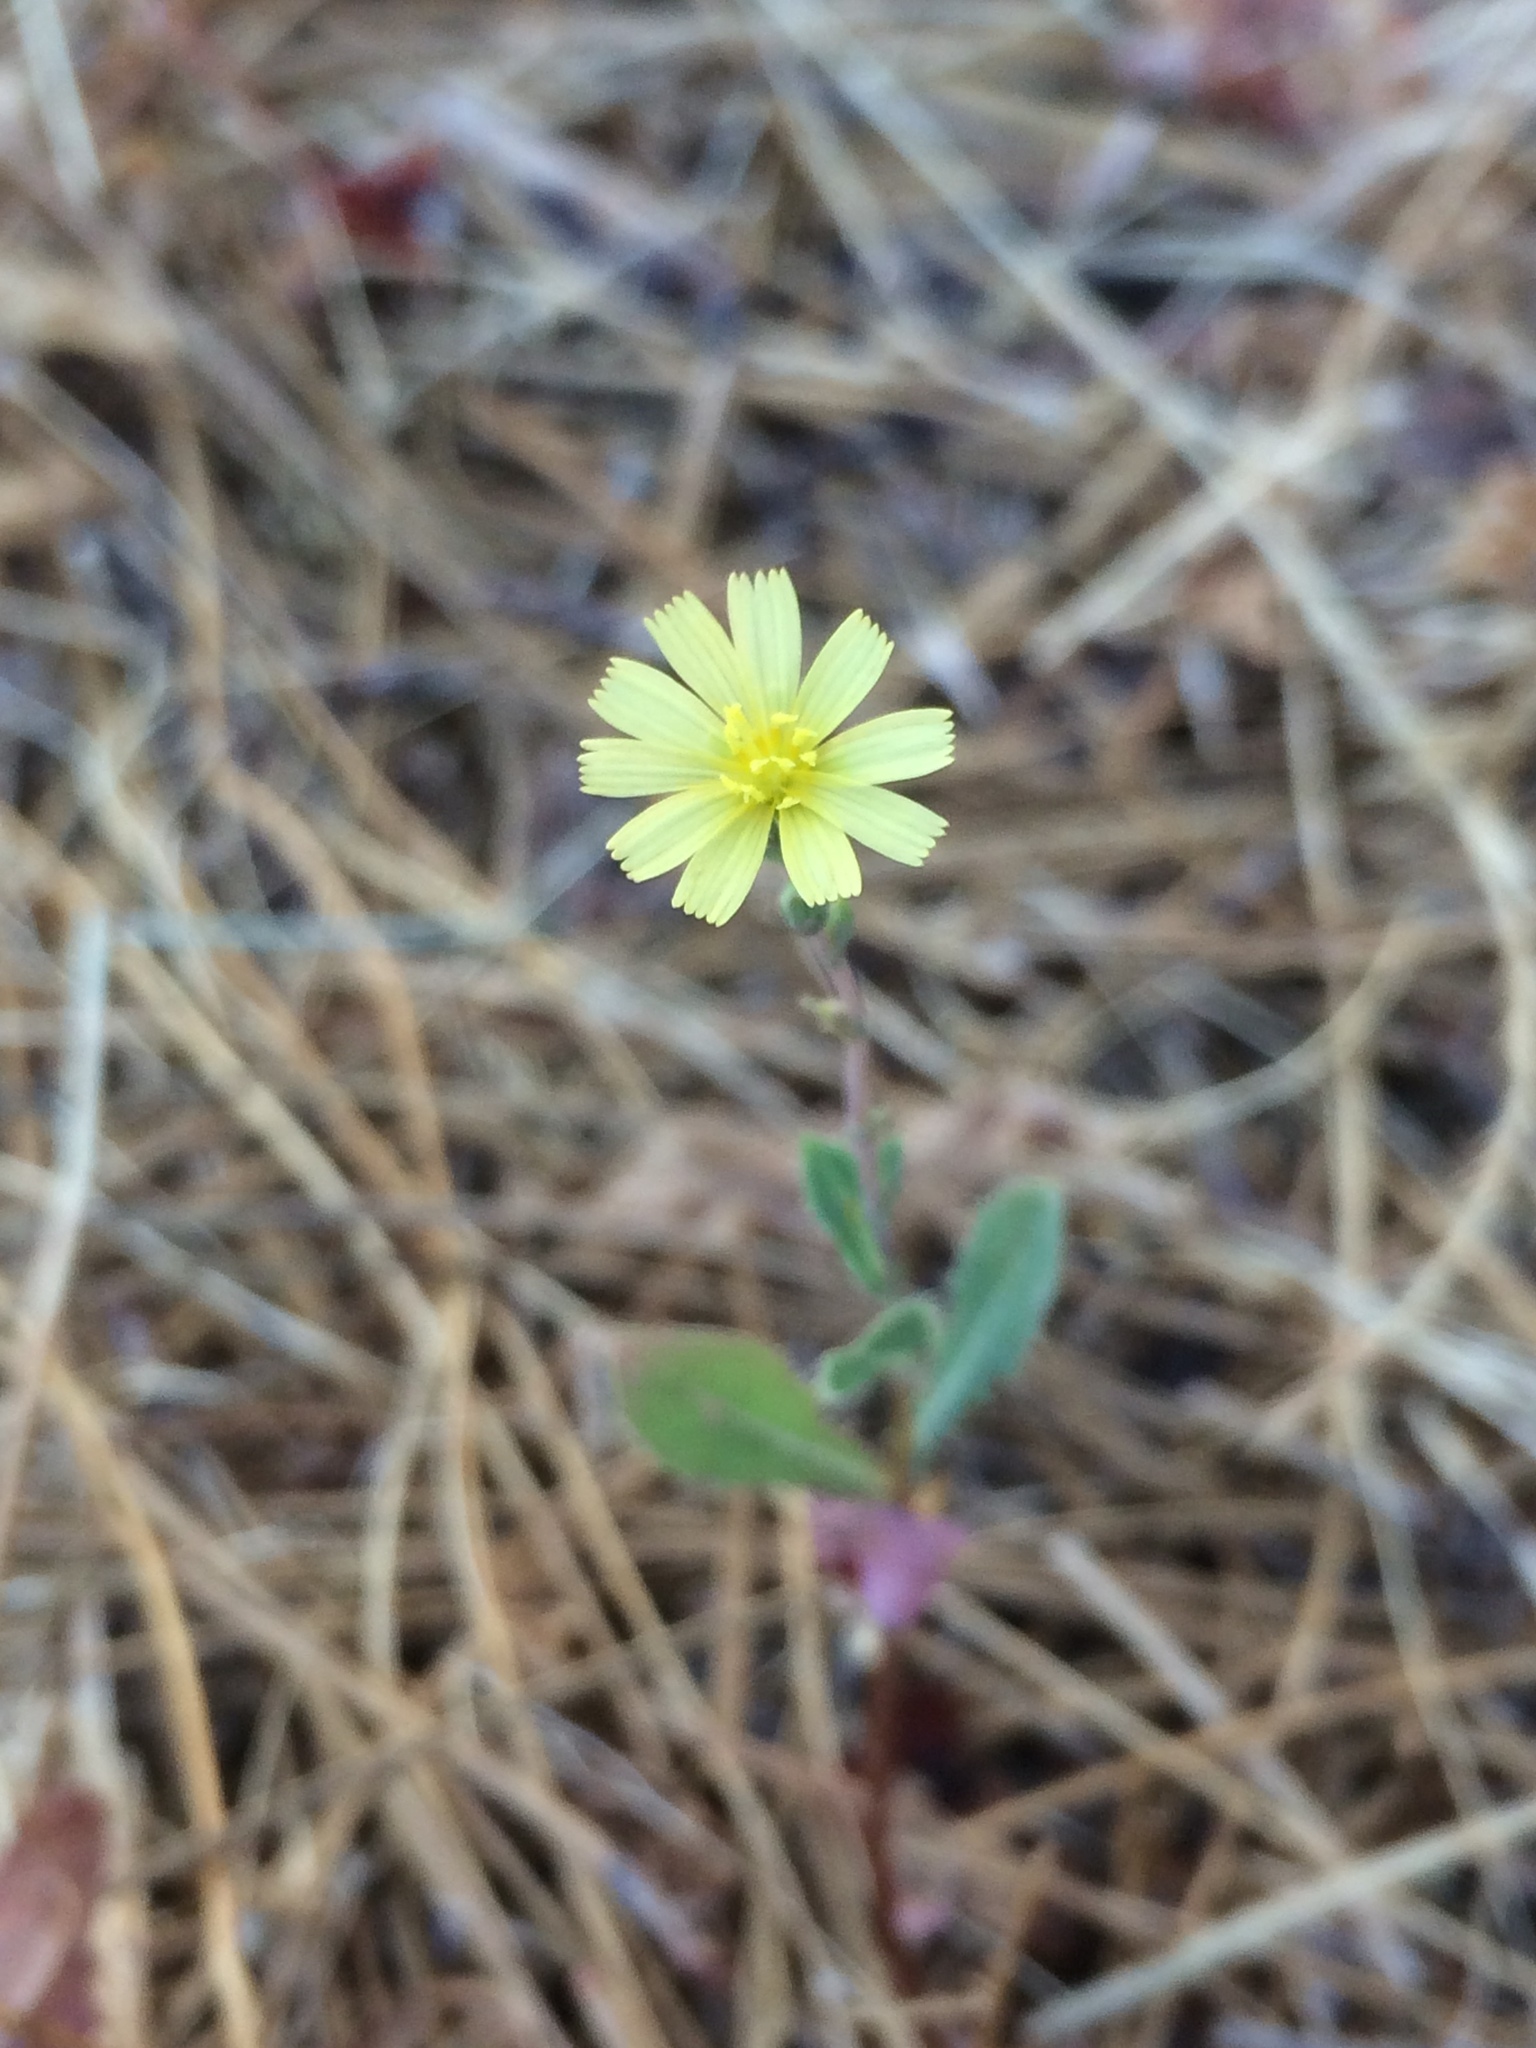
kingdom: Plantae
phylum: Tracheophyta
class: Magnoliopsida
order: Asterales
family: Asteraceae
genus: Lactuca
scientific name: Lactuca serriola
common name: Prickly lettuce
